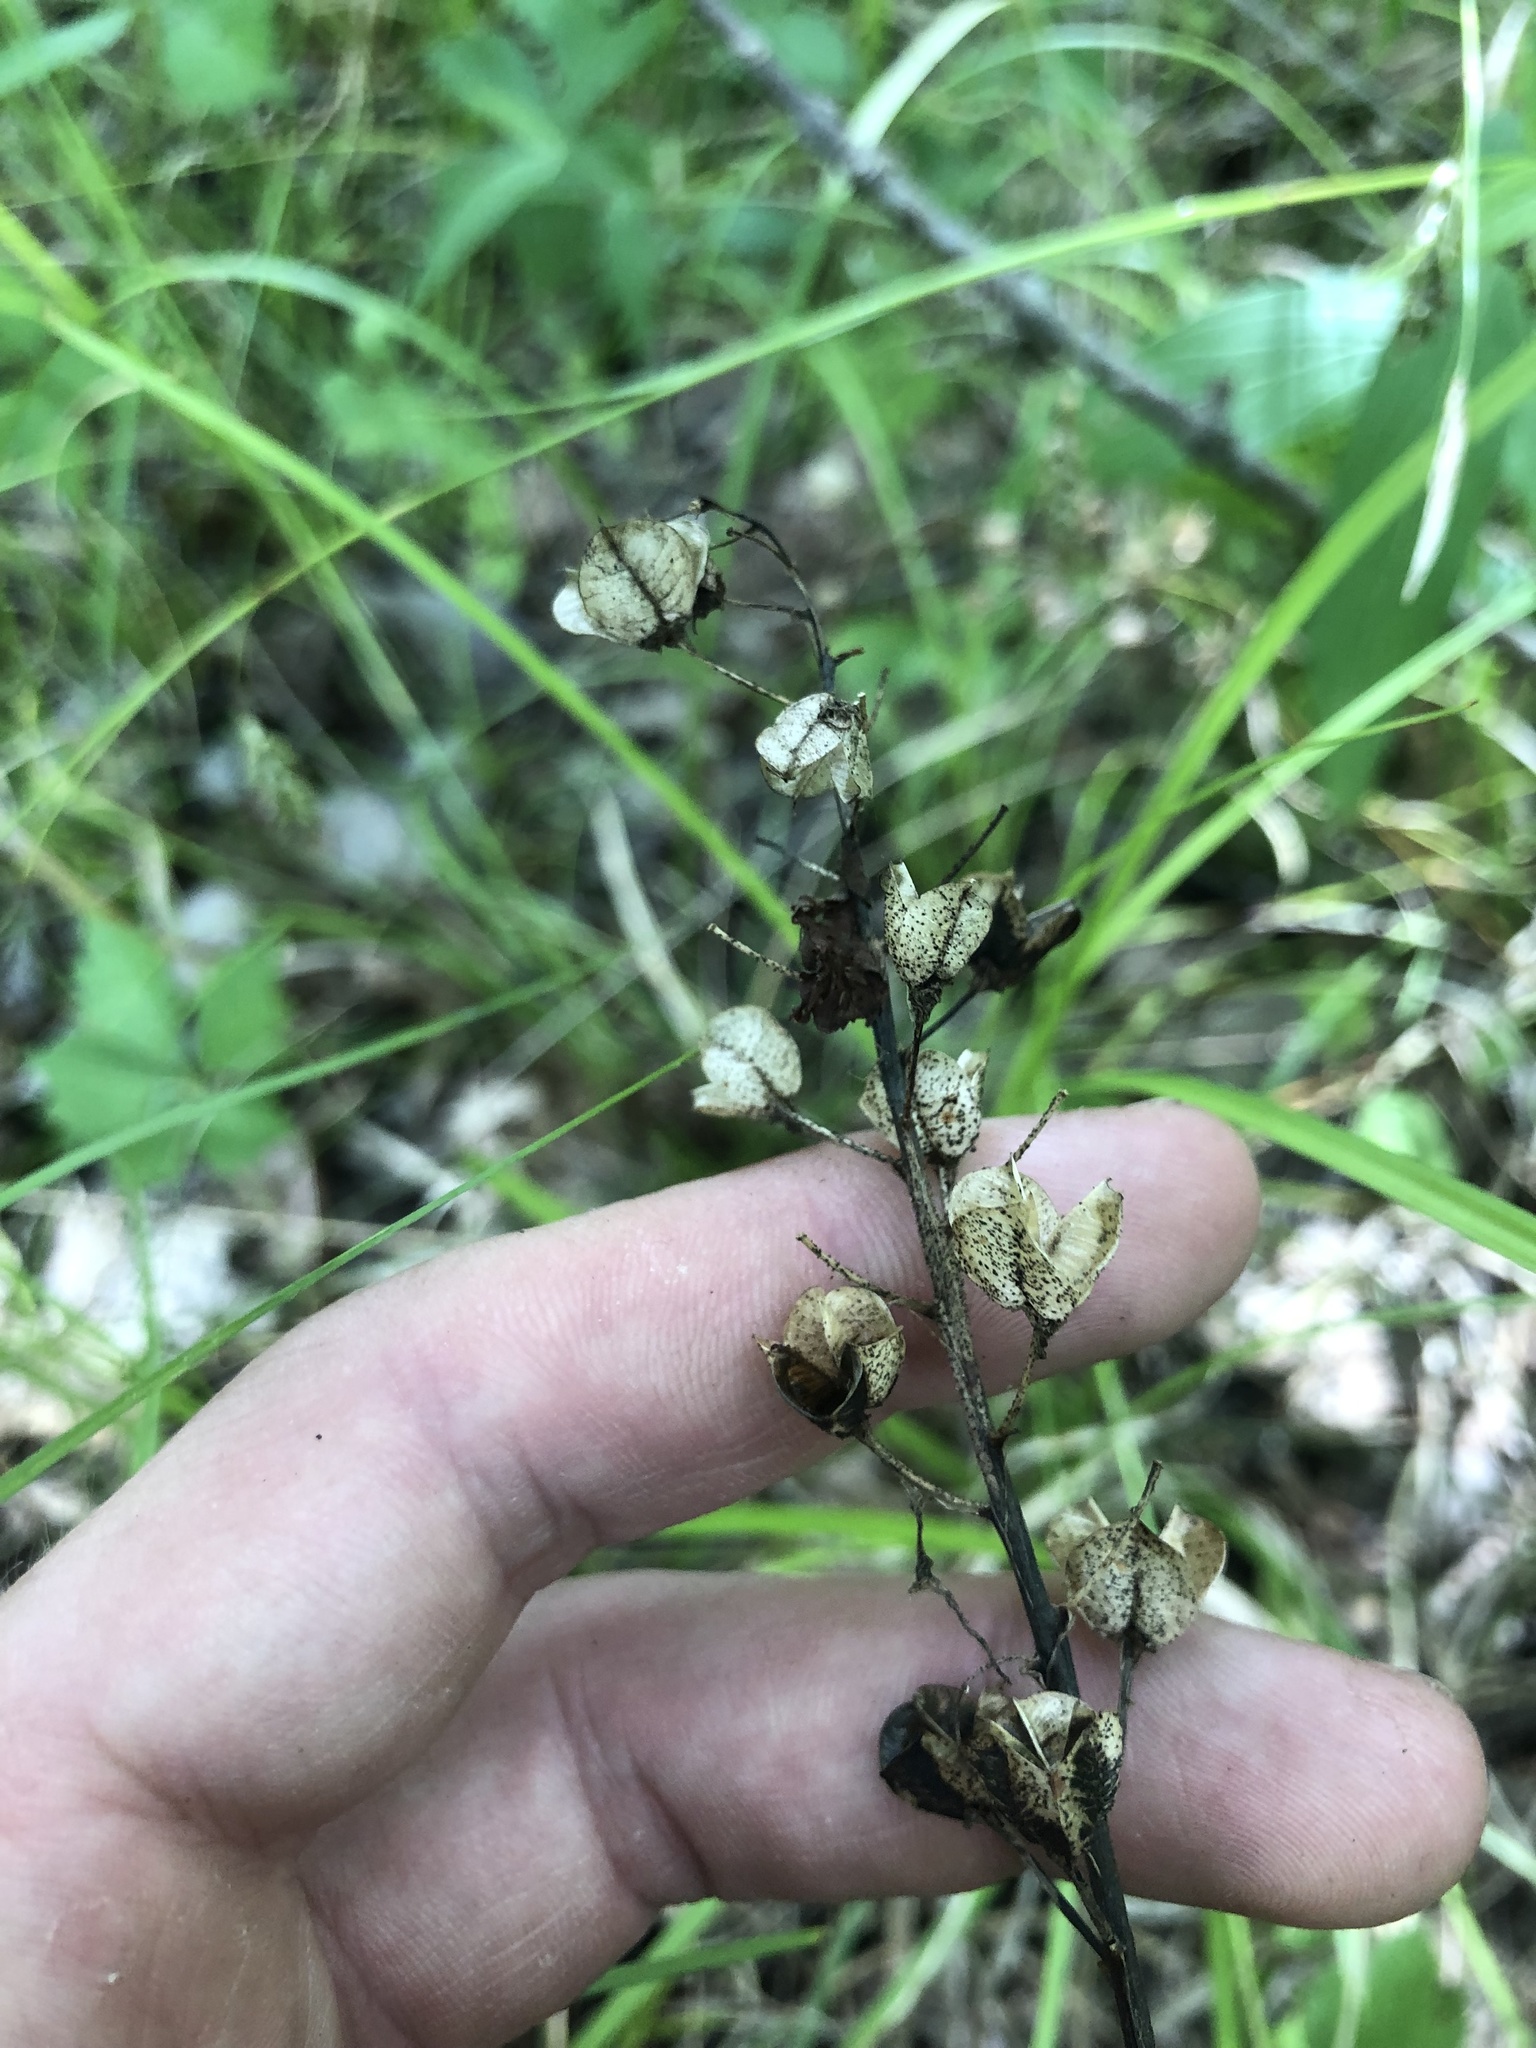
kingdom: Plantae
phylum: Tracheophyta
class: Liliopsida
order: Asparagales
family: Asparagaceae
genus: Camassia
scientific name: Camassia scilloides
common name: Wild hyacinth
